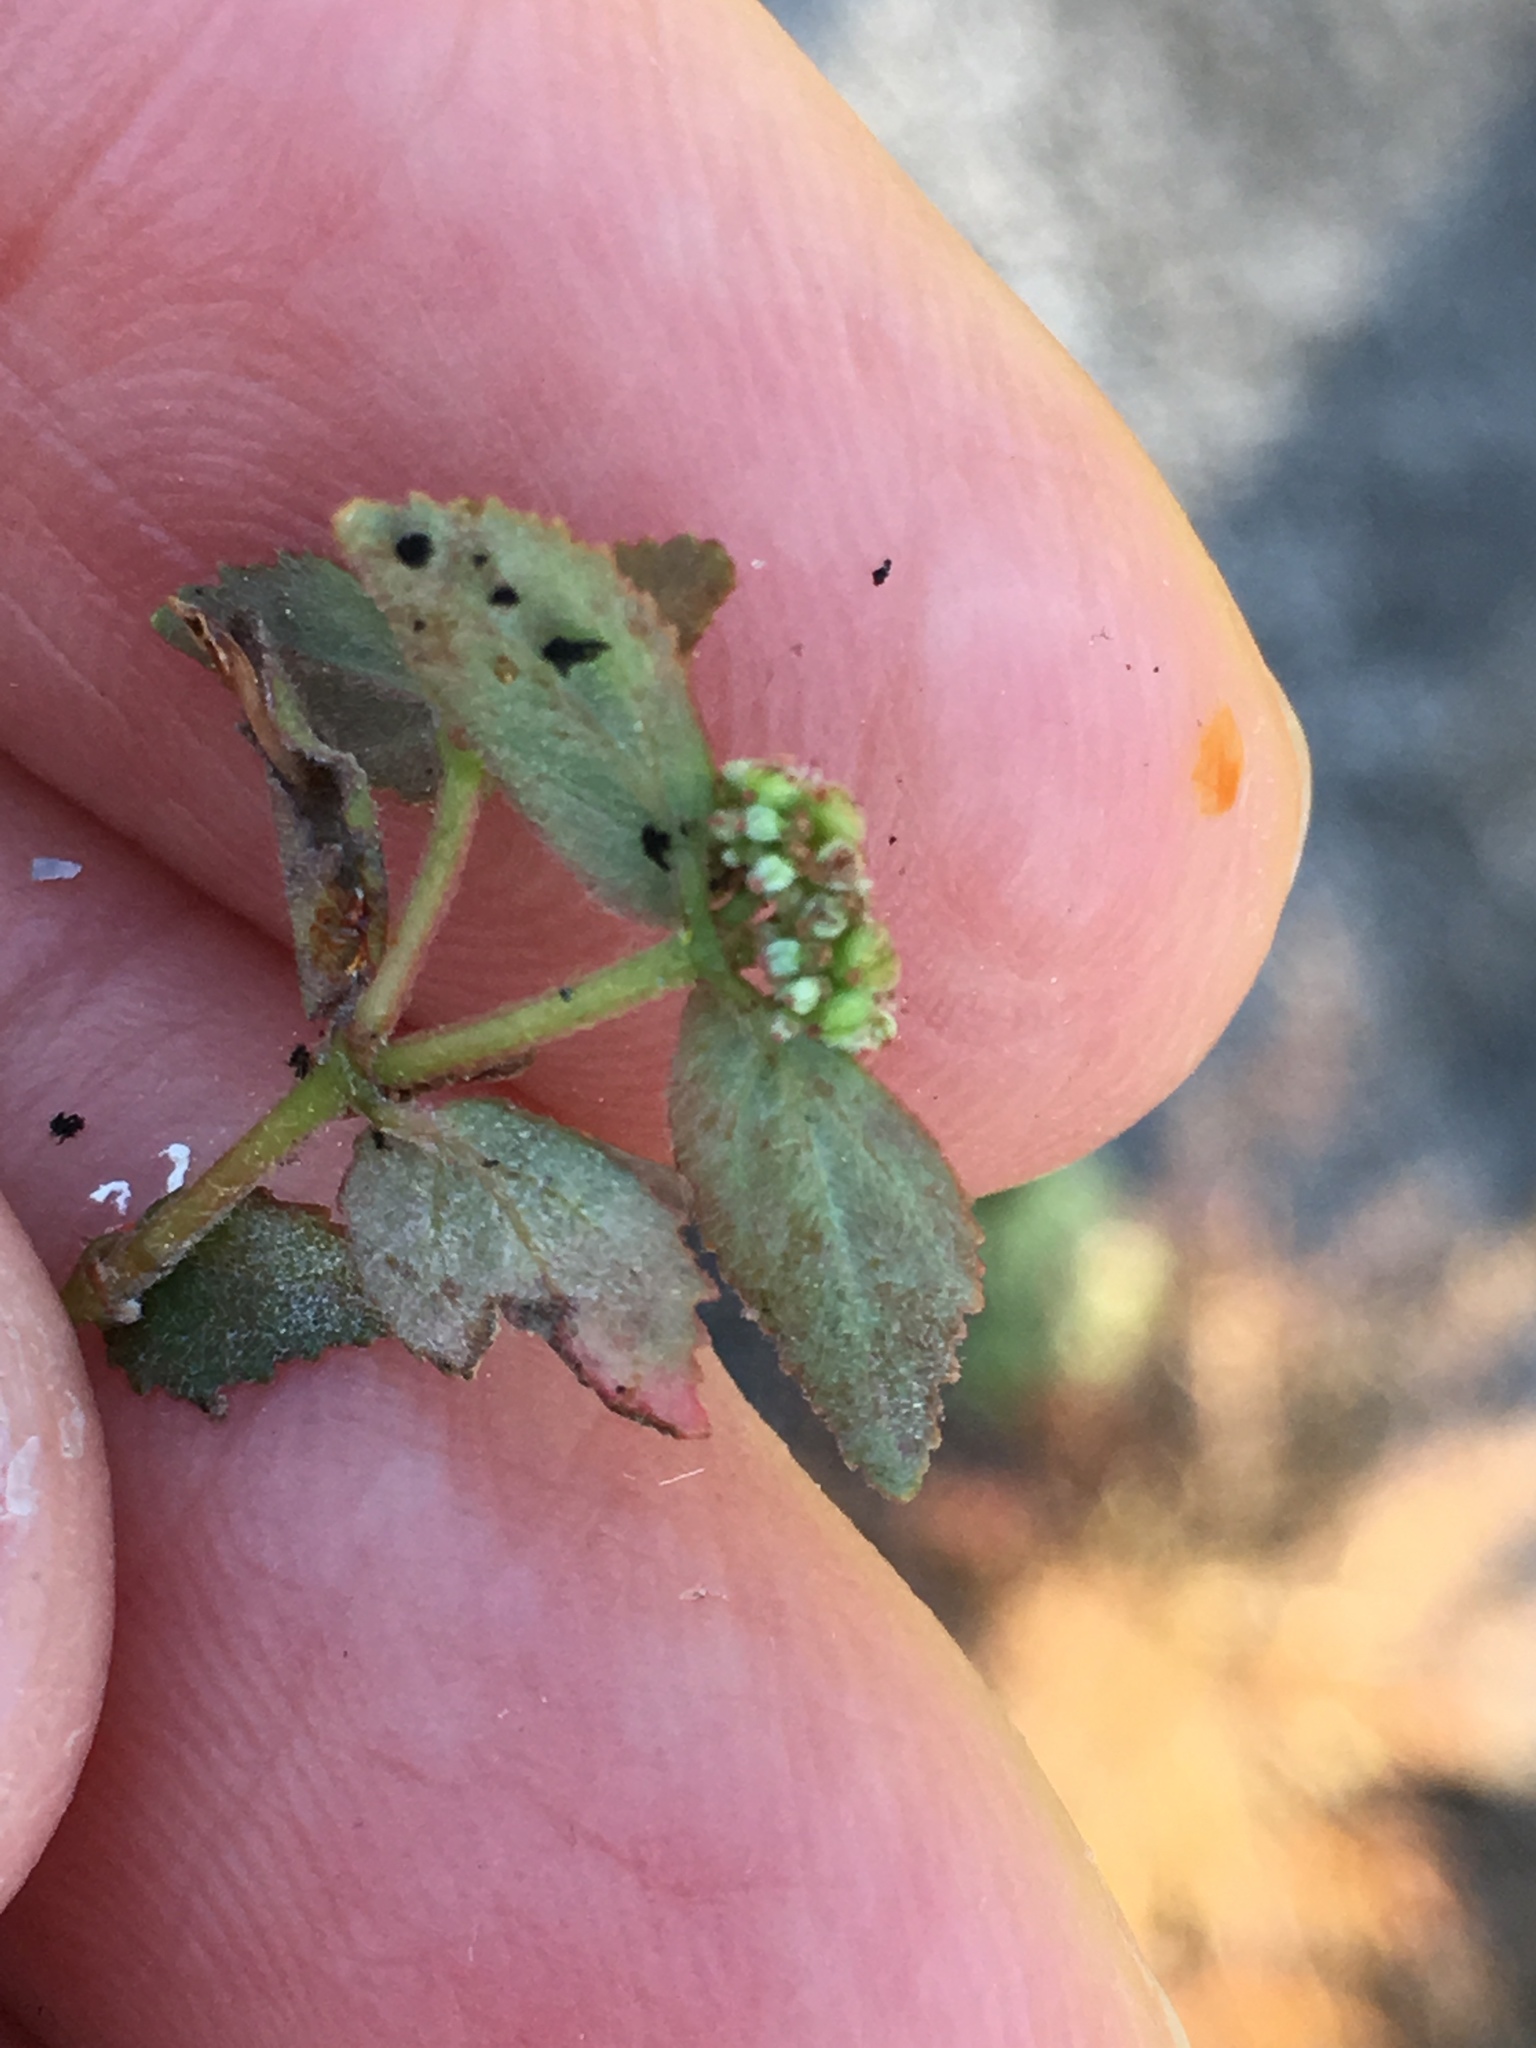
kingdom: Plantae
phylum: Tracheophyta
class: Magnoliopsida
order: Malpighiales
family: Euphorbiaceae
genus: Euphorbia
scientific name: Euphorbia ophthalmica
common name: Florida hammock sandmat
